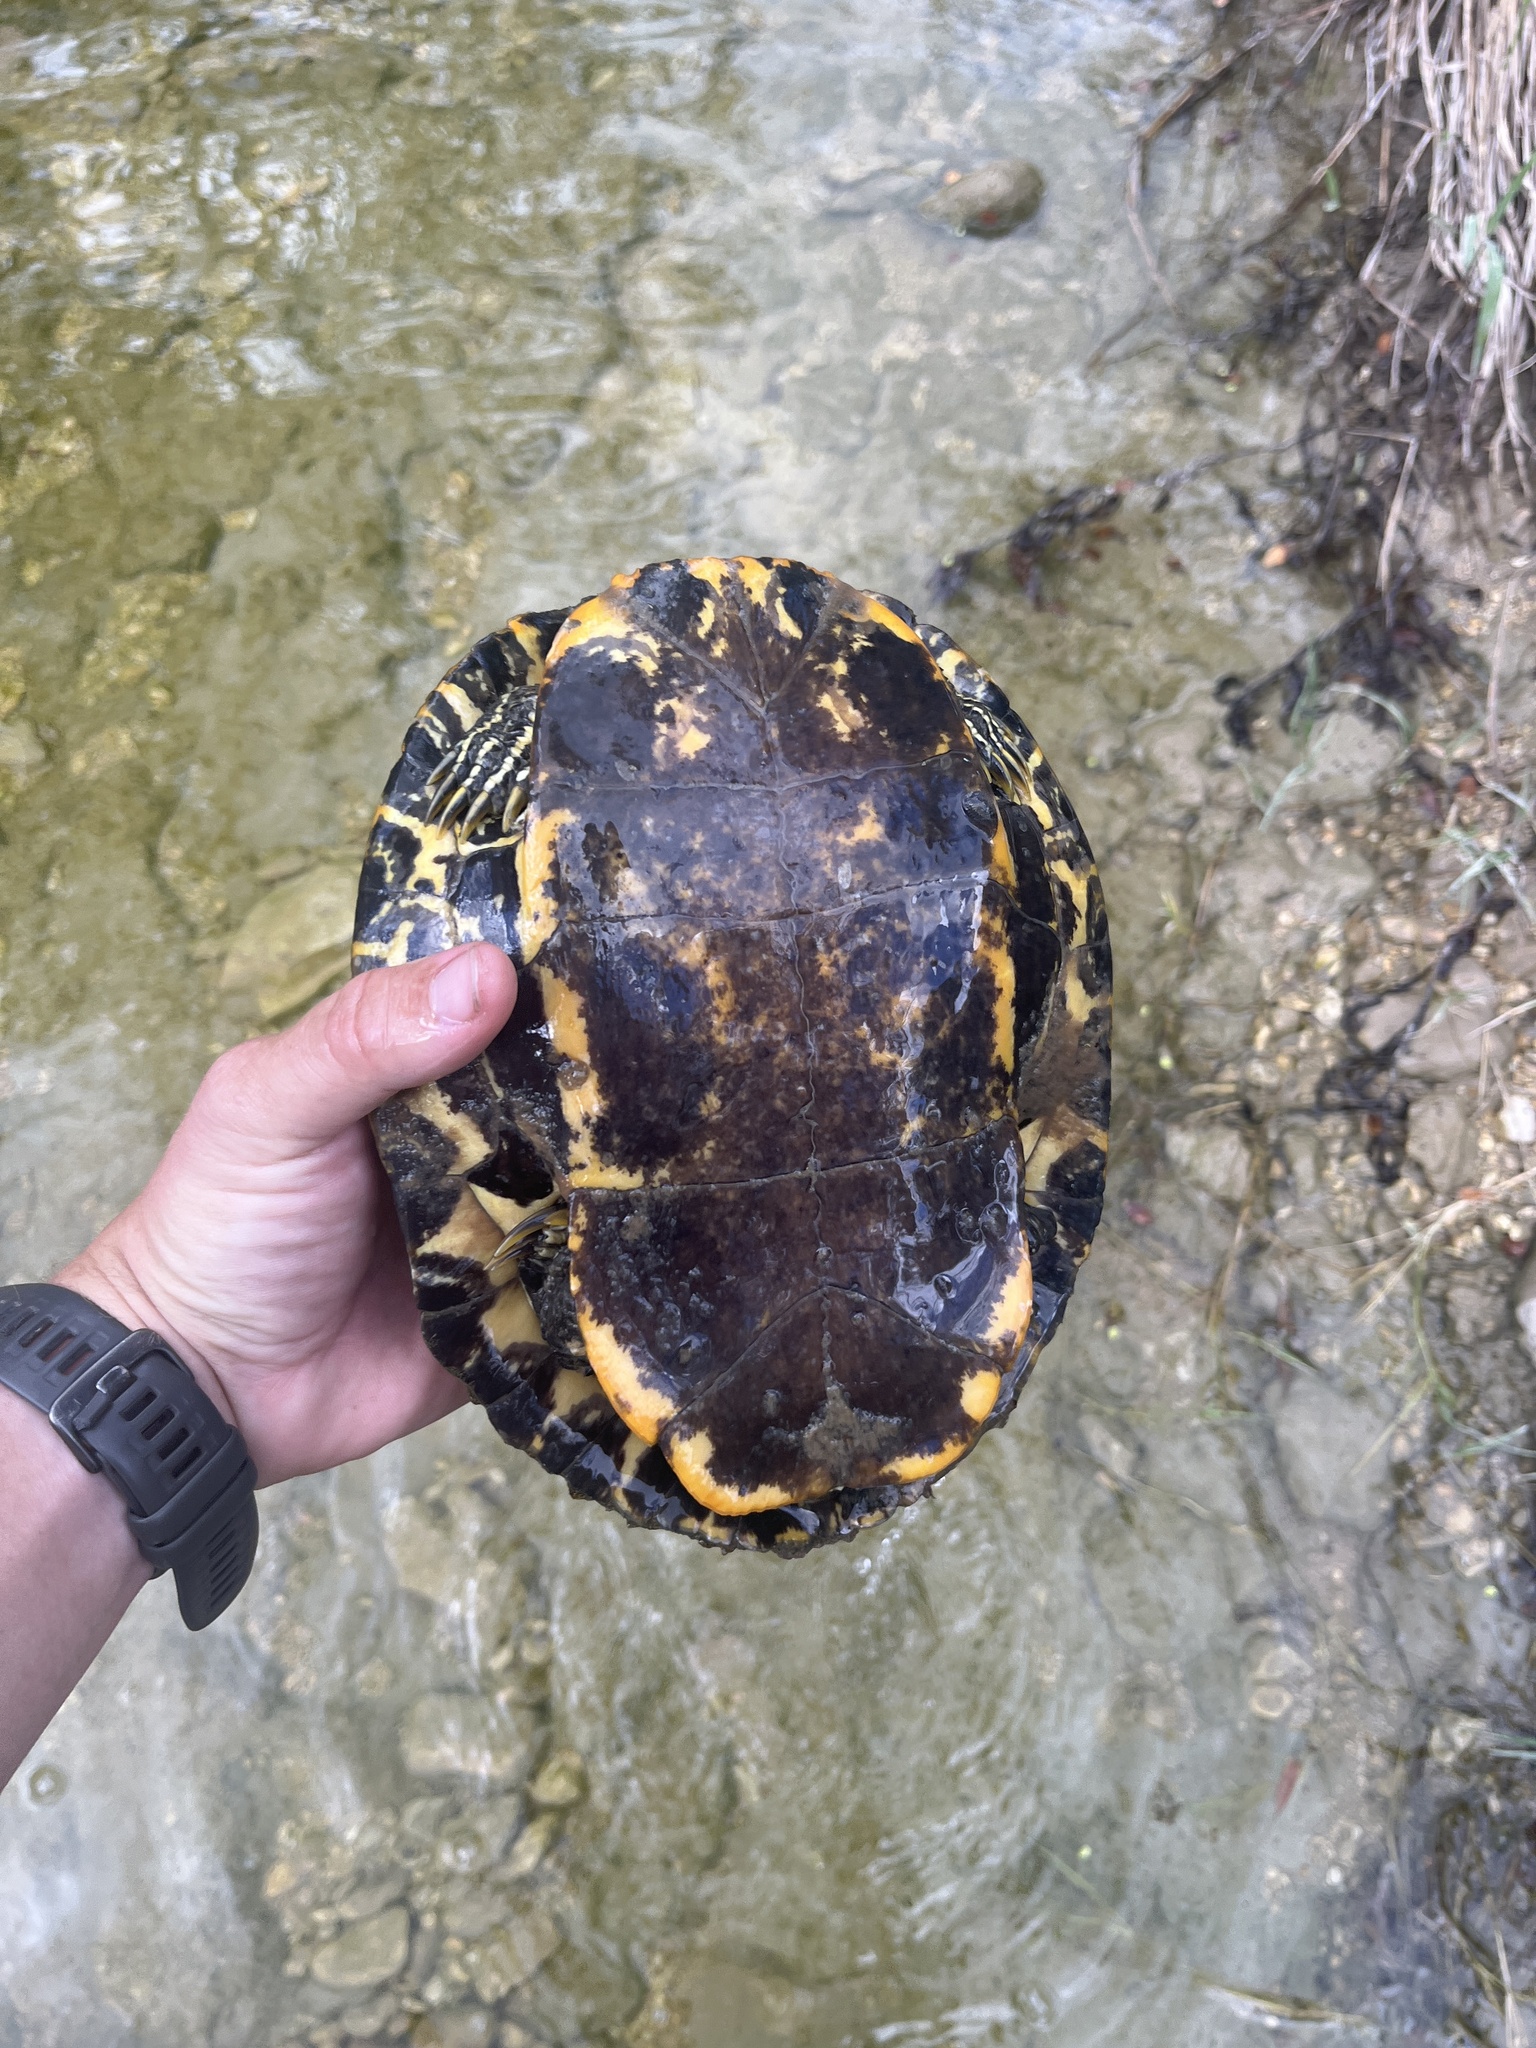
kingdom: Animalia
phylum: Chordata
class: Testudines
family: Emydidae
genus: Trachemys
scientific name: Trachemys scripta
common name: Slider
